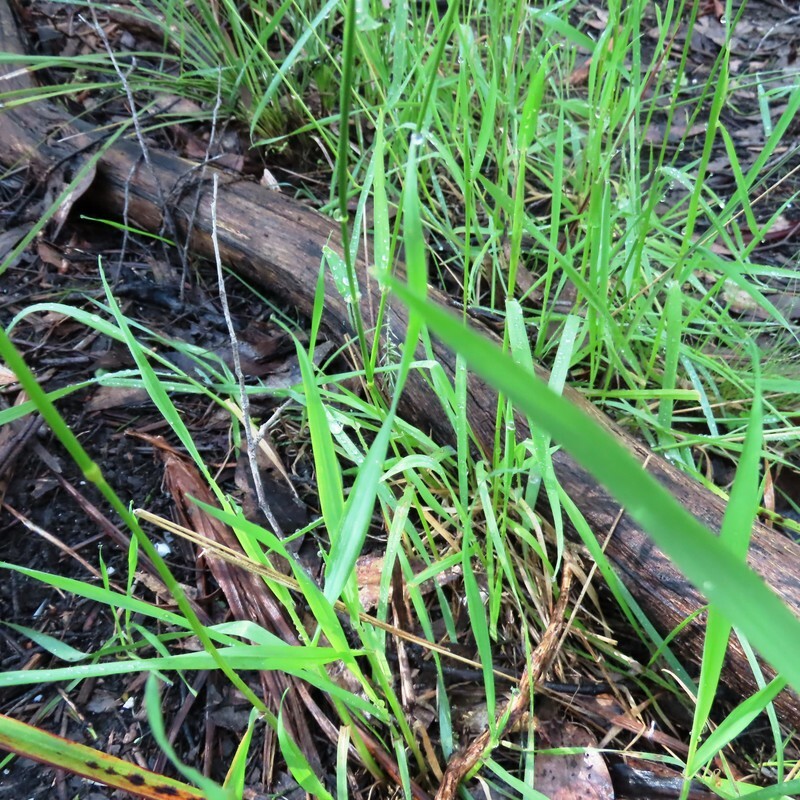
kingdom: Plantae
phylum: Tracheophyta
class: Liliopsida
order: Poales
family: Poaceae
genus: Anthoxanthum
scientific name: Anthoxanthum odoratum
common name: Sweet vernalgrass
